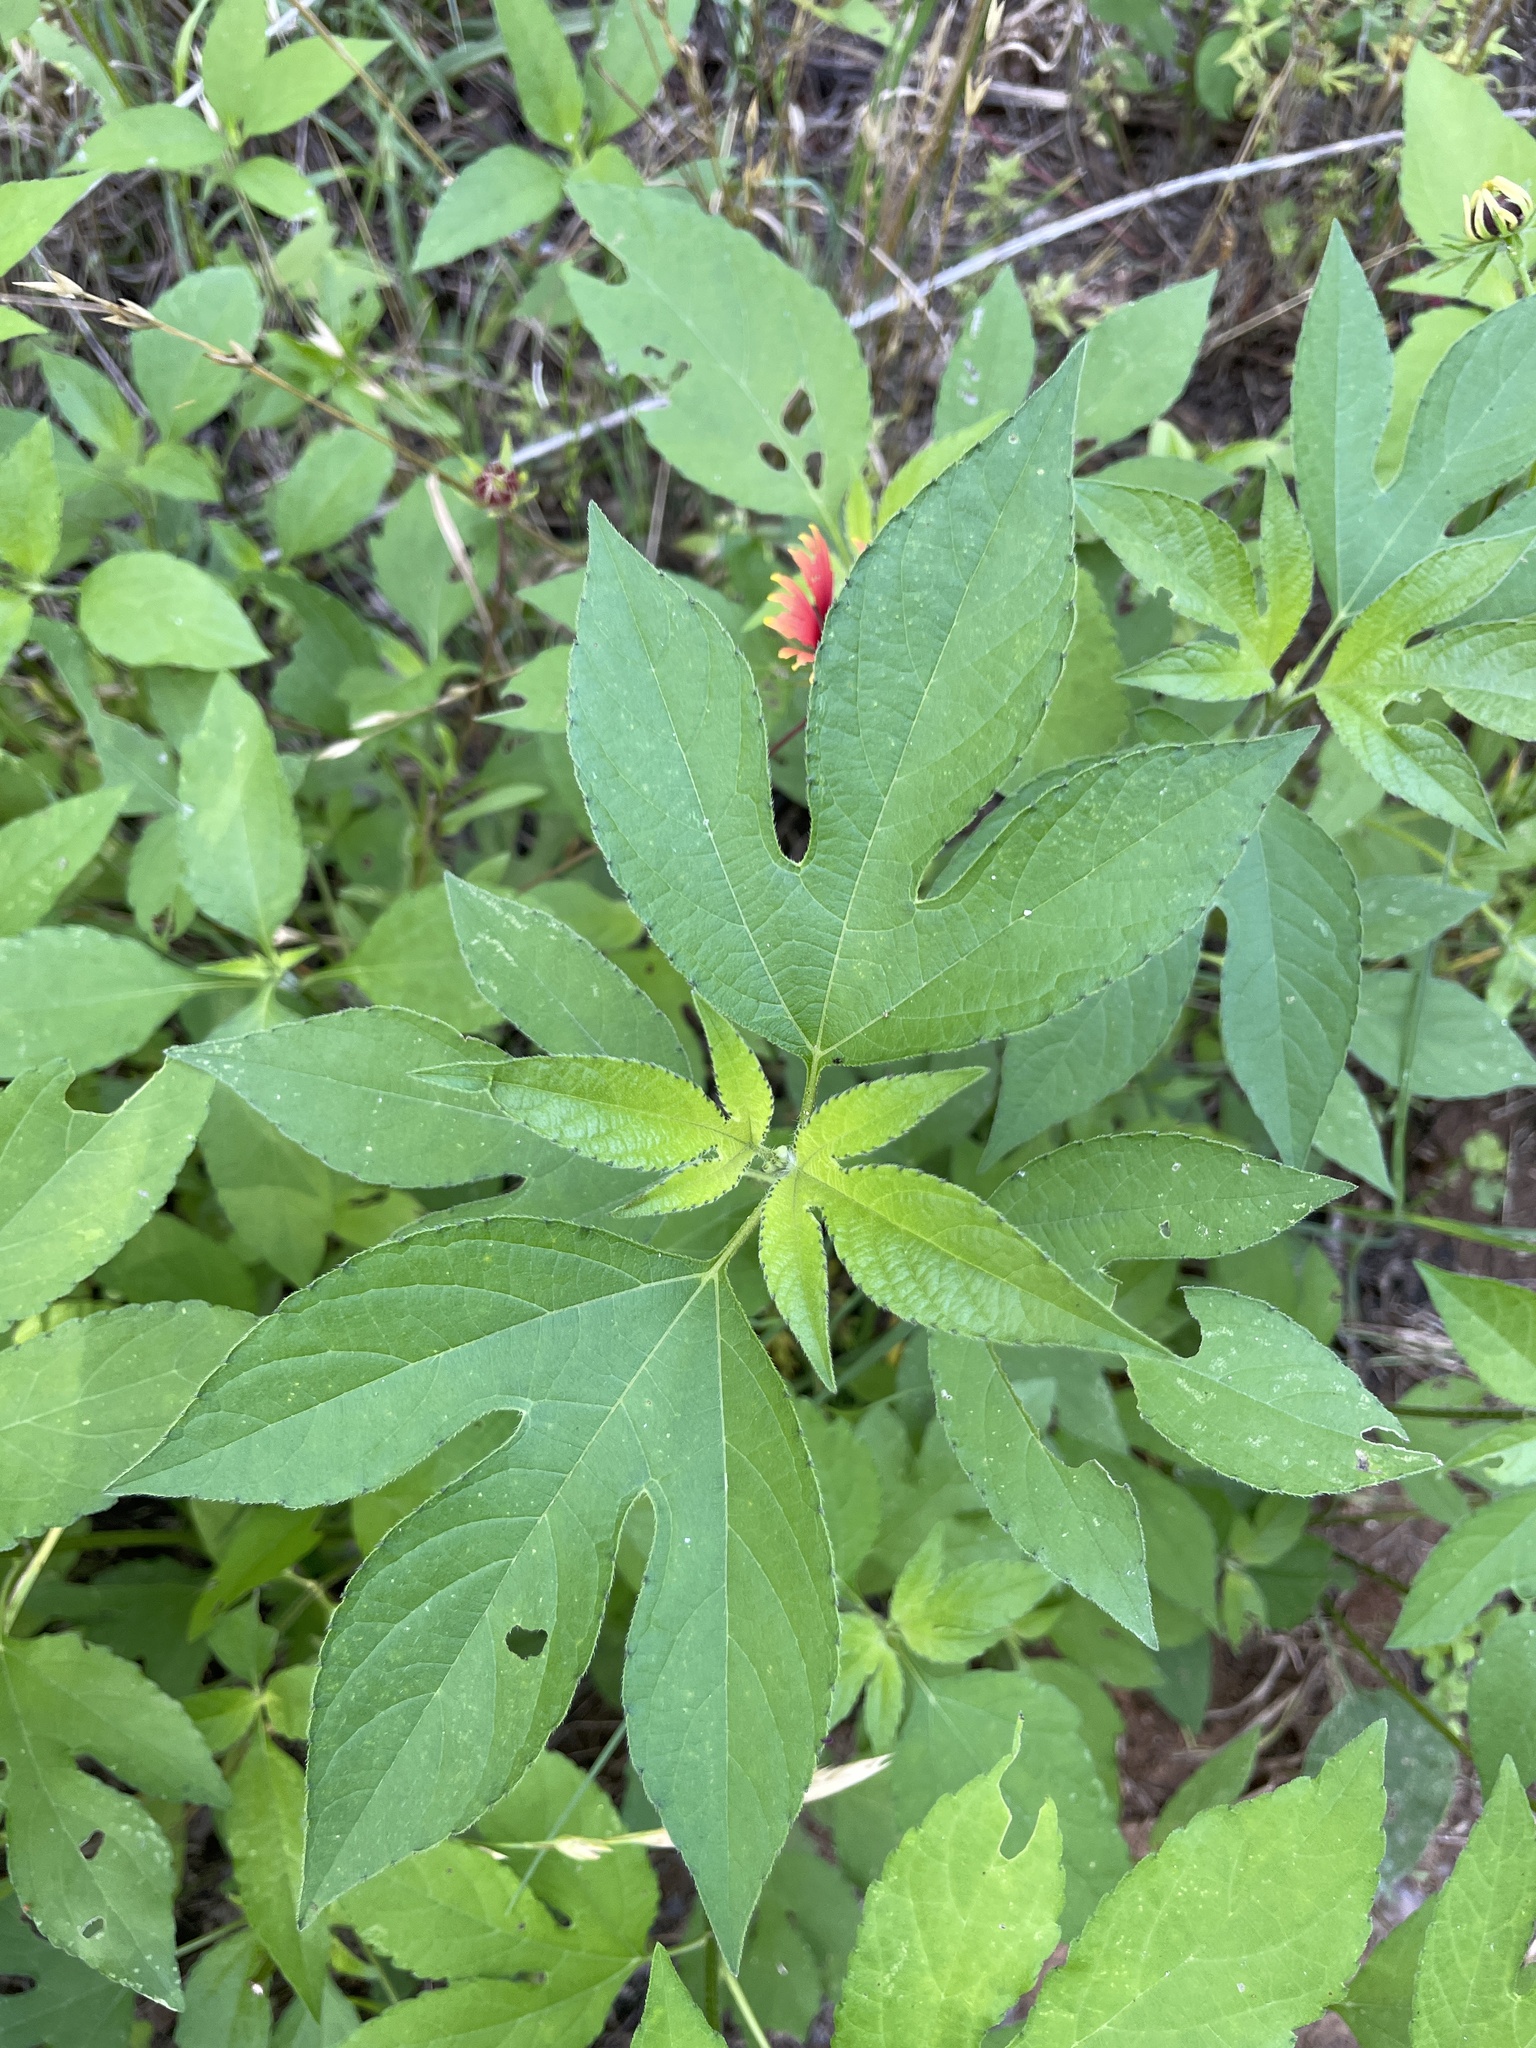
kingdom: Plantae
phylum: Tracheophyta
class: Magnoliopsida
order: Asterales
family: Asteraceae
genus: Ambrosia
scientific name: Ambrosia trifida
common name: Giant ragweed
